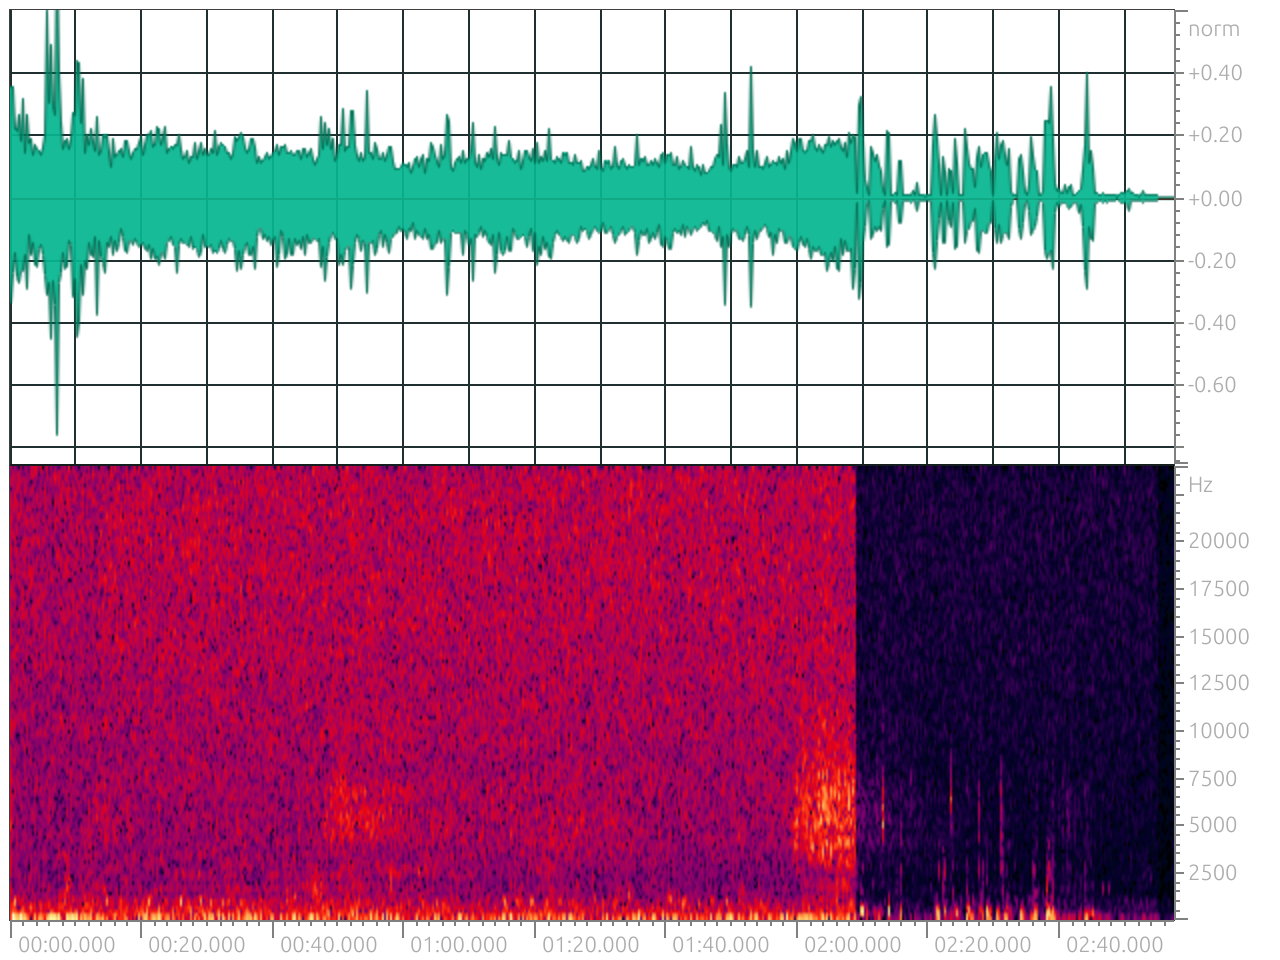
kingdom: Animalia
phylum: Chordata
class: Aves
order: Strigiformes
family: Strigidae
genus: Otus
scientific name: Otus sunia
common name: Oriental scops-owl
